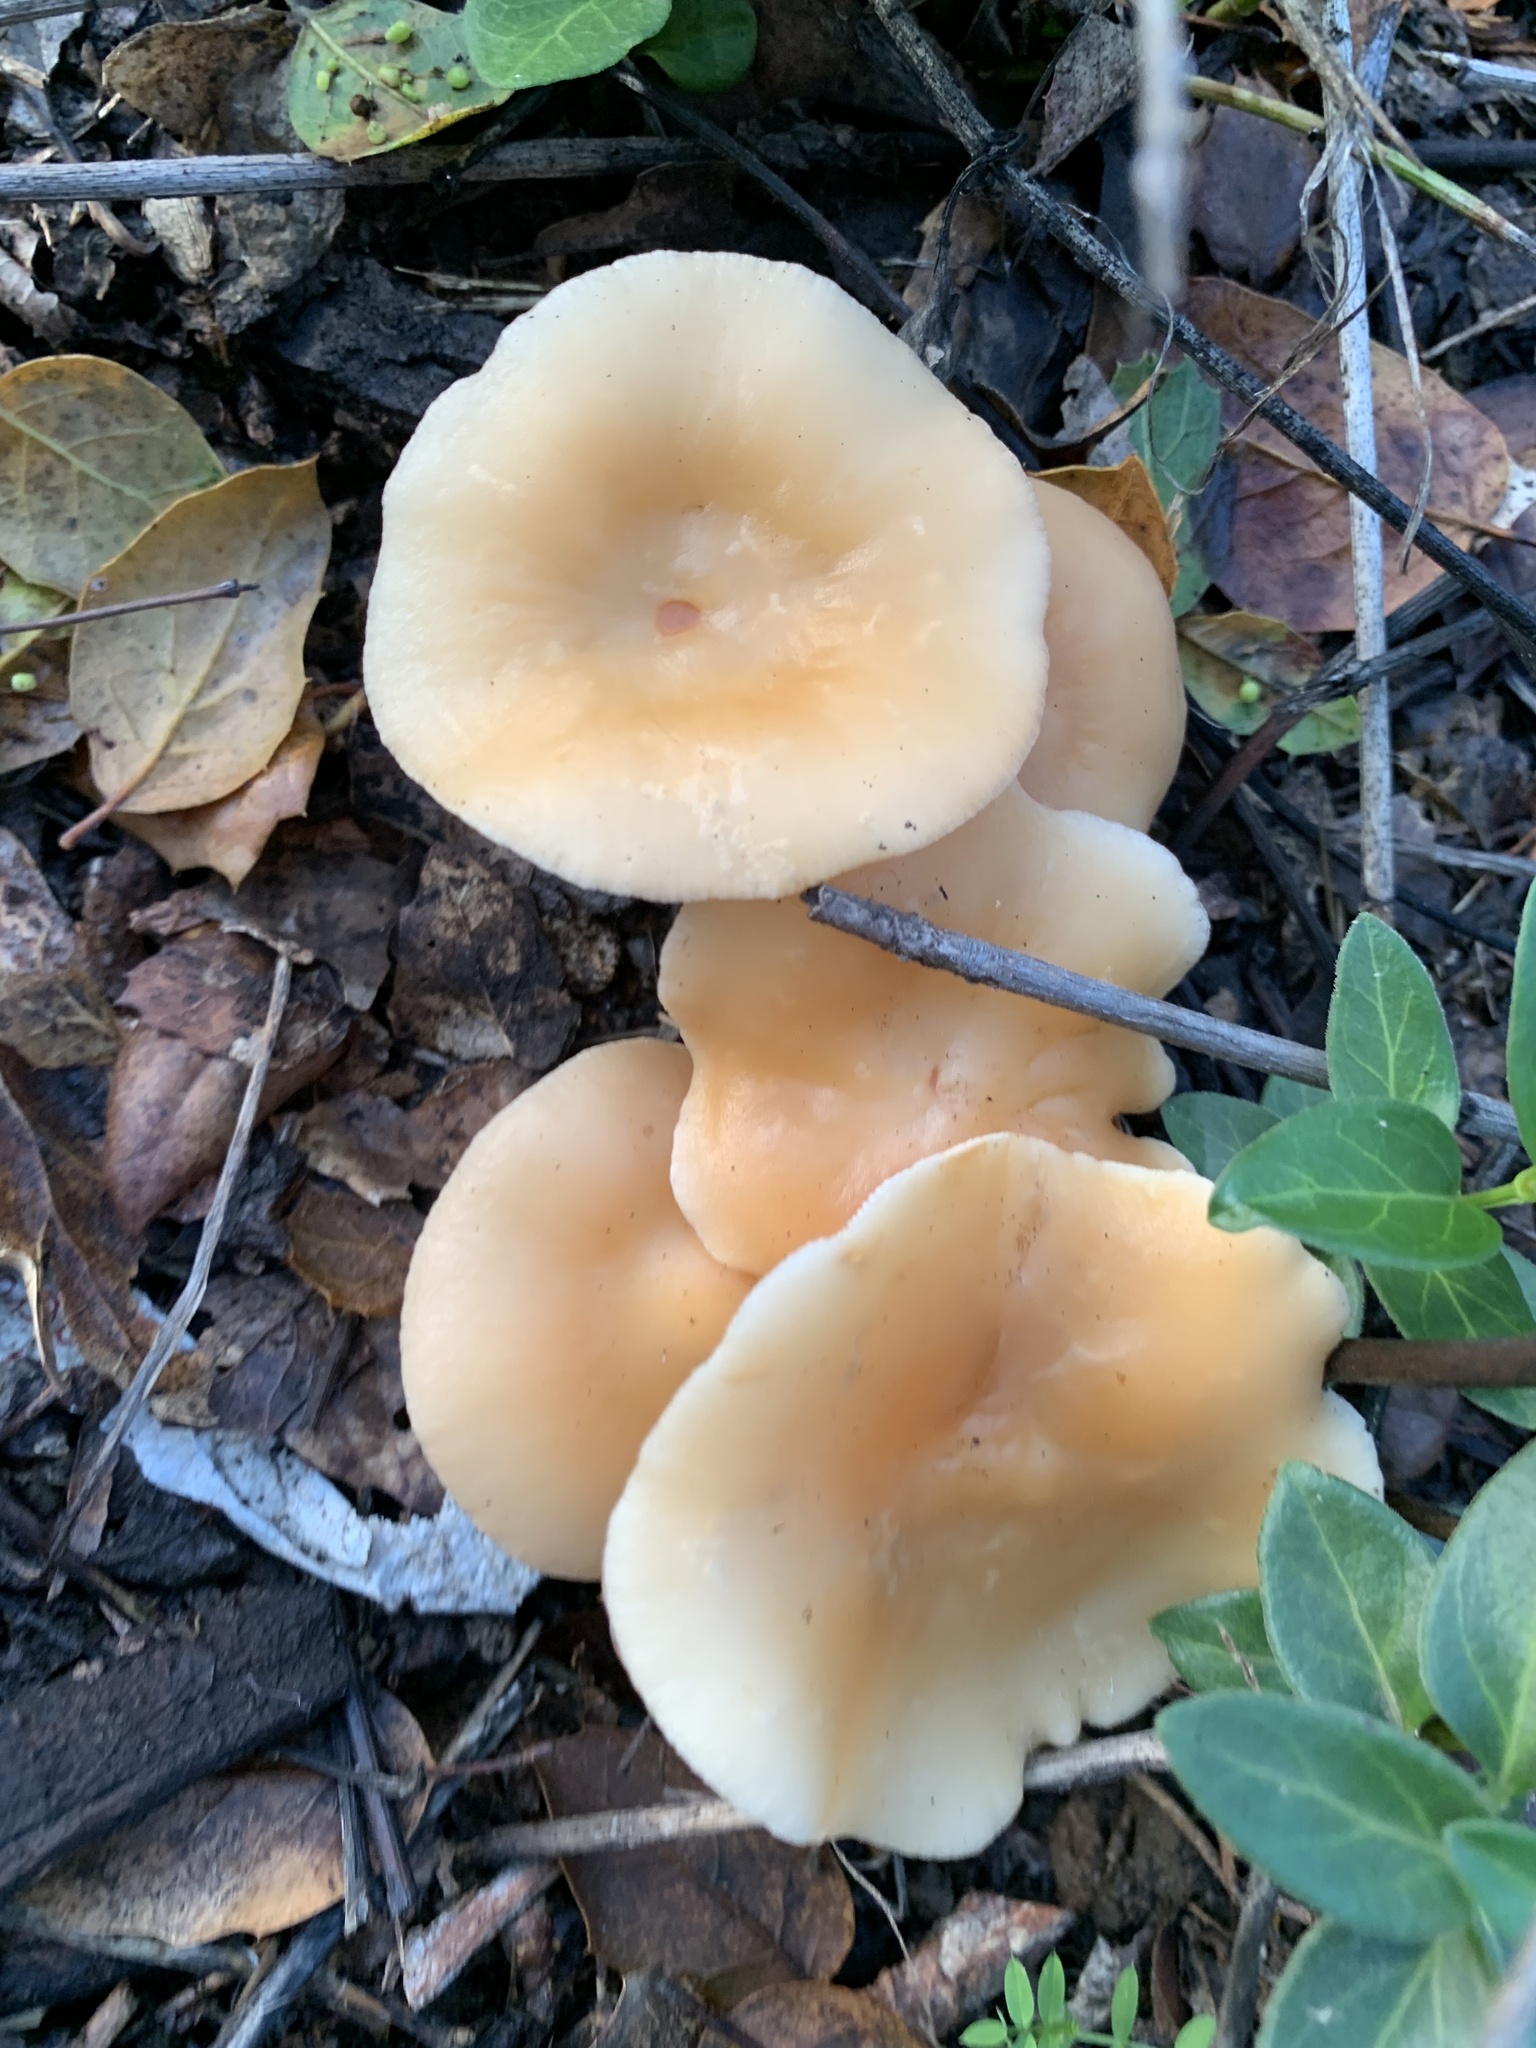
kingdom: Fungi
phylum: Basidiomycota
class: Agaricomycetes
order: Agaricales
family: Omphalotaceae
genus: Gymnopus
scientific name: Gymnopus dryophilus
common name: Penny top
